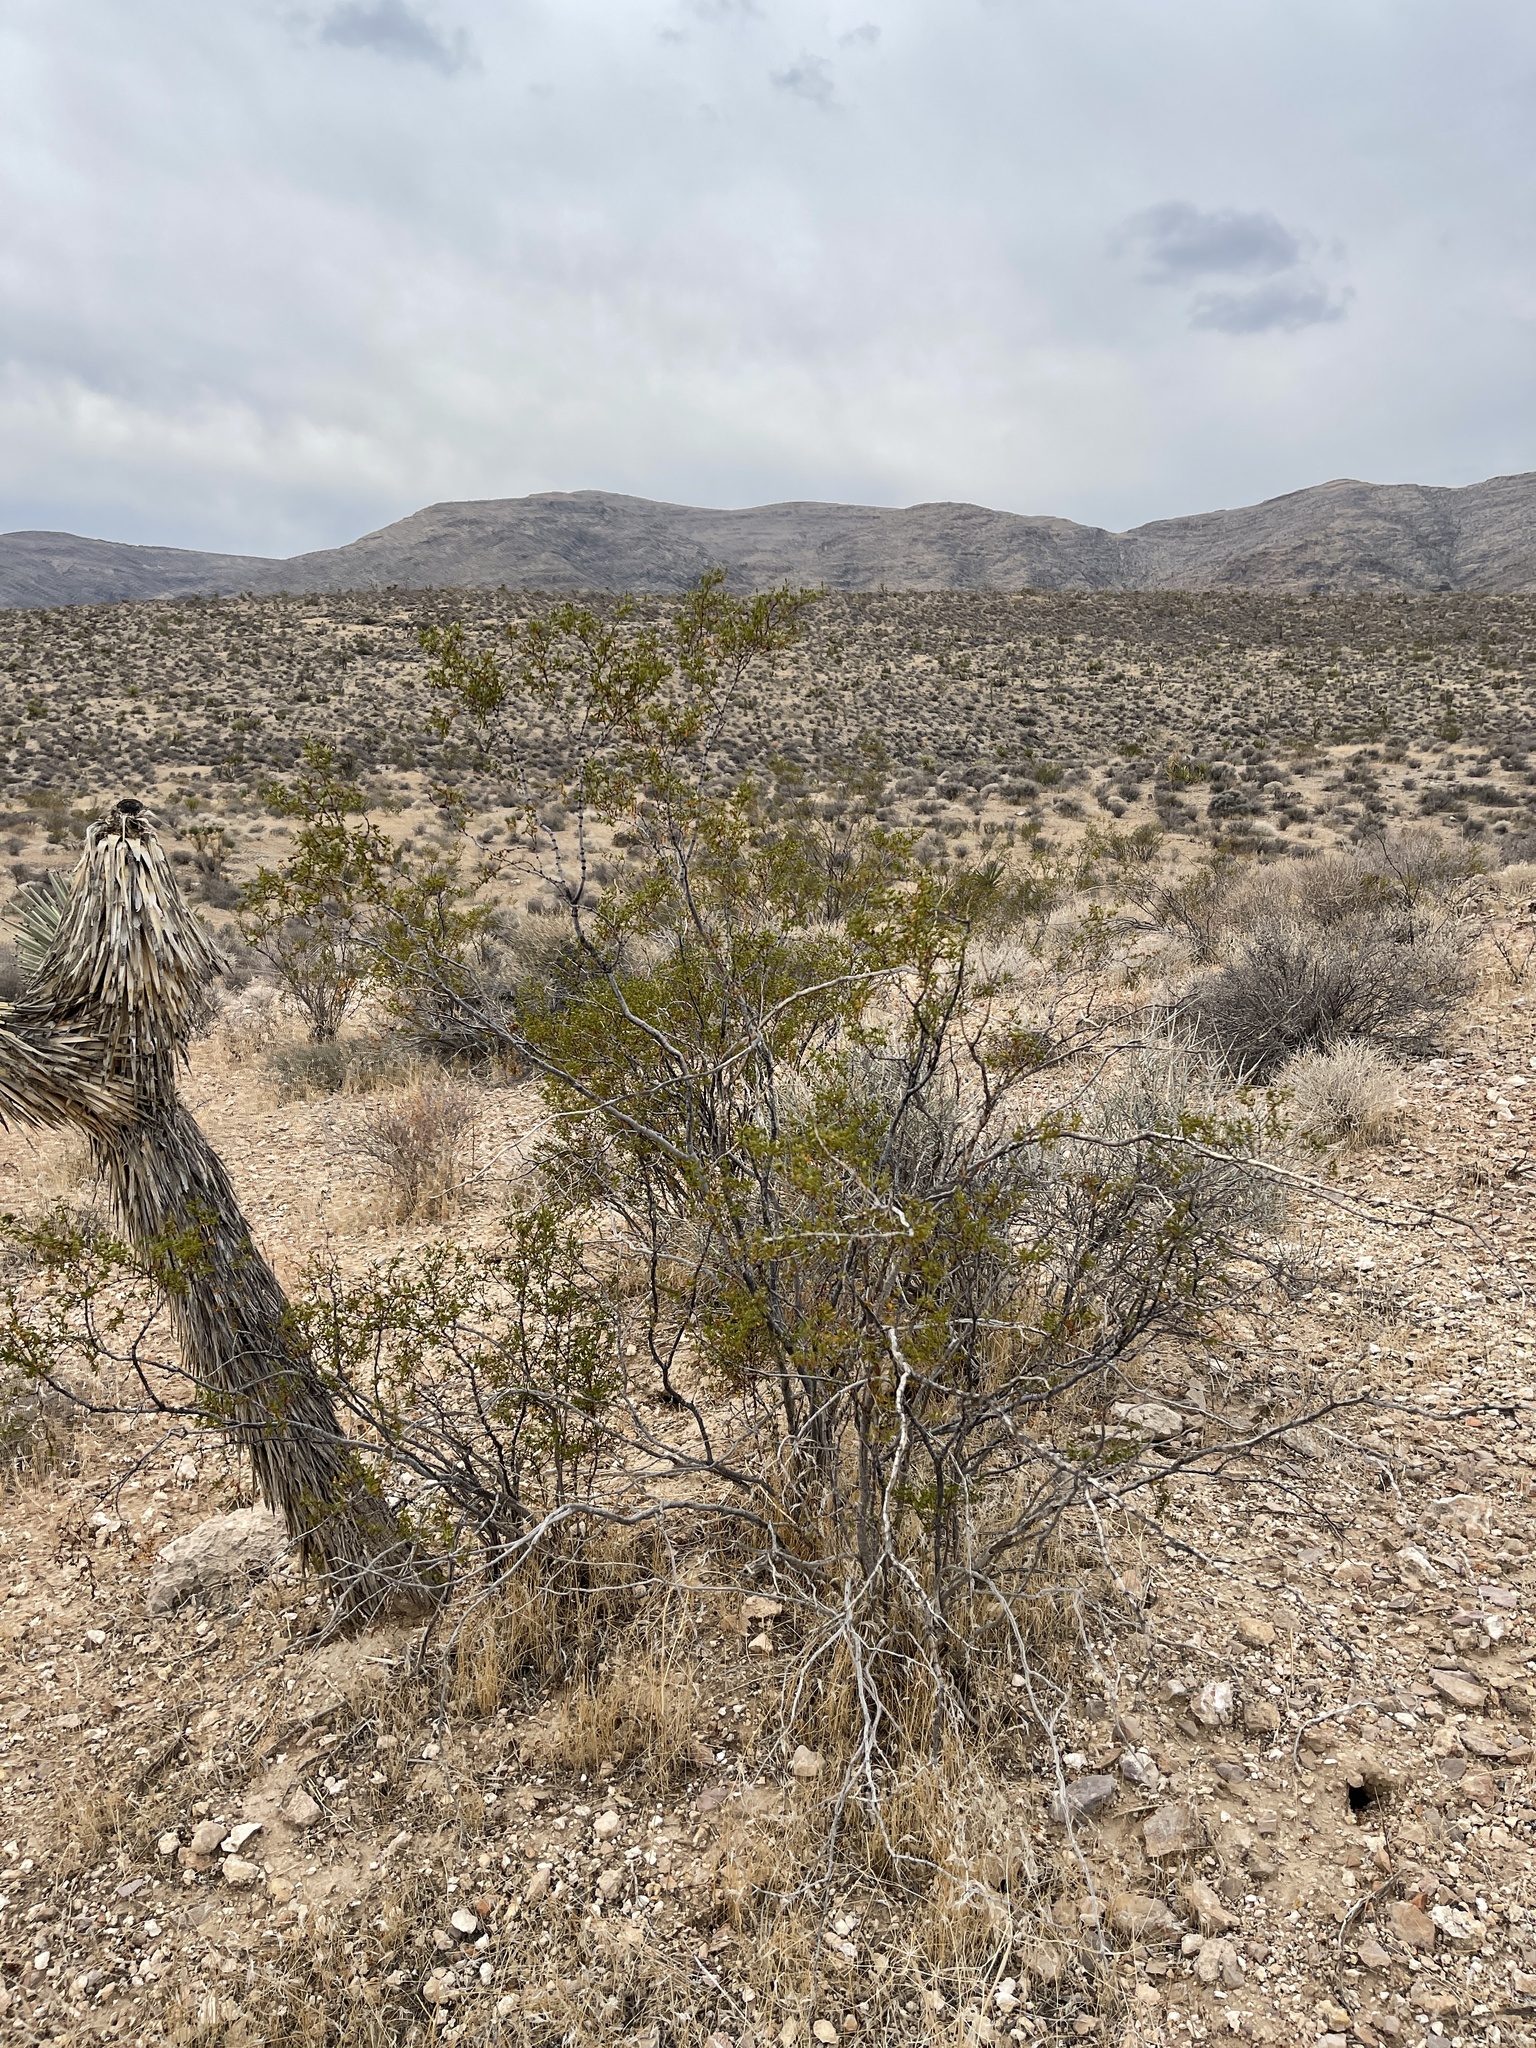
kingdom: Plantae
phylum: Tracheophyta
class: Magnoliopsida
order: Zygophyllales
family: Zygophyllaceae
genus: Larrea
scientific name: Larrea tridentata
